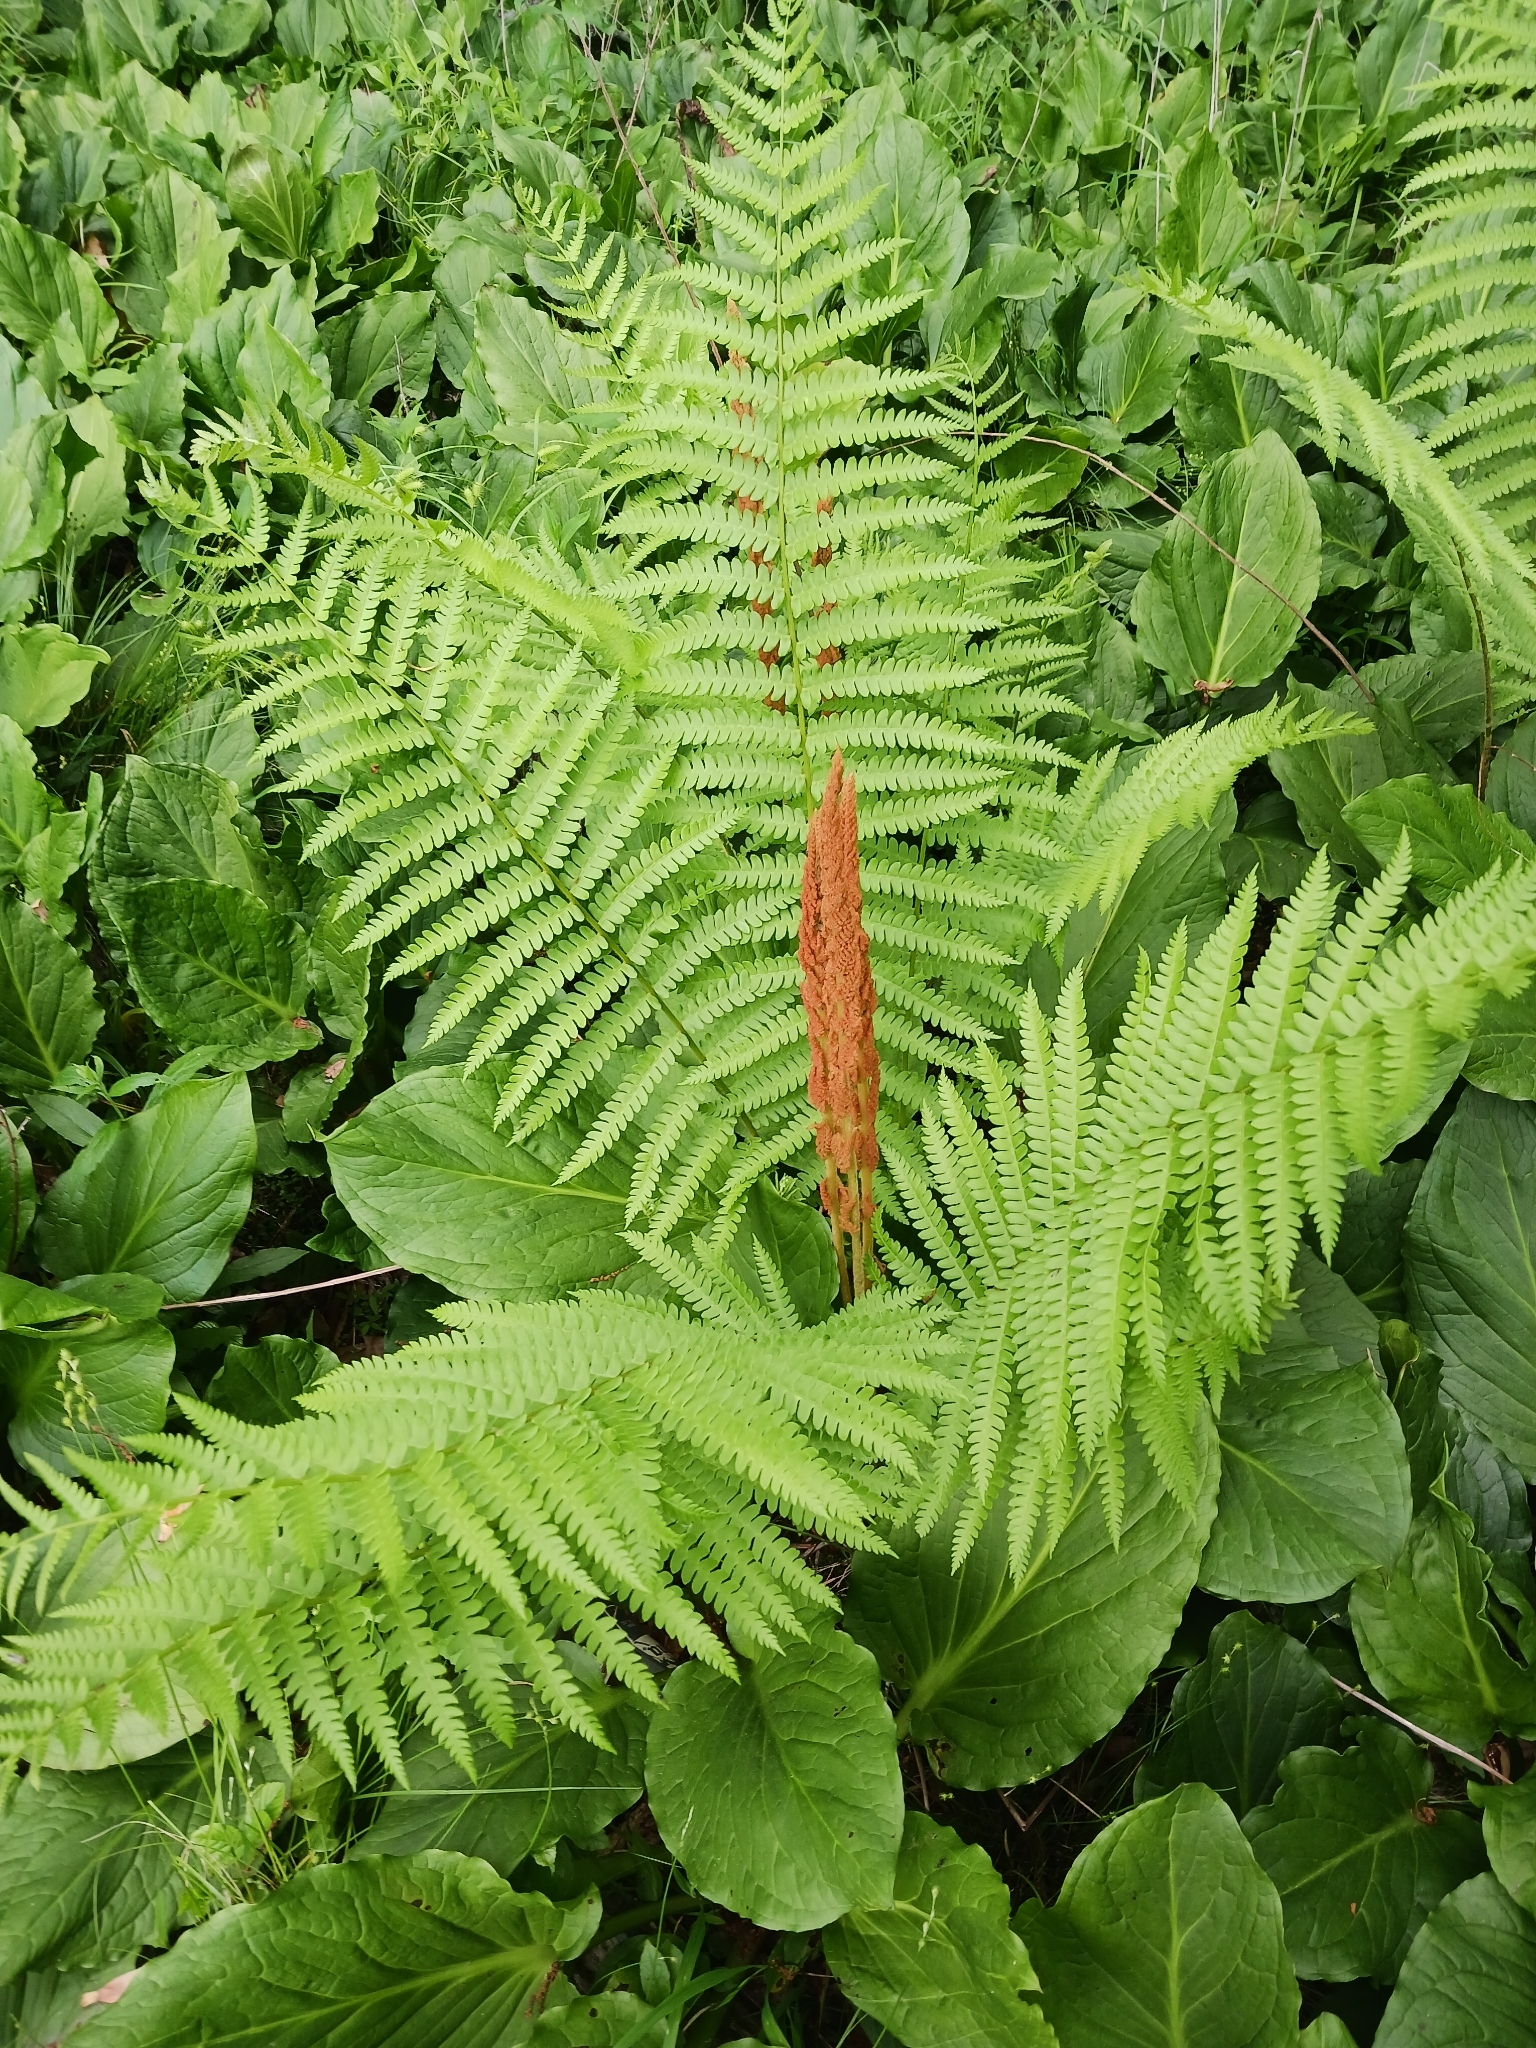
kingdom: Plantae
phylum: Tracheophyta
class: Polypodiopsida
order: Osmundales
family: Osmundaceae
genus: Osmundastrum
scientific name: Osmundastrum cinnamomeum
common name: Cinnamon fern
